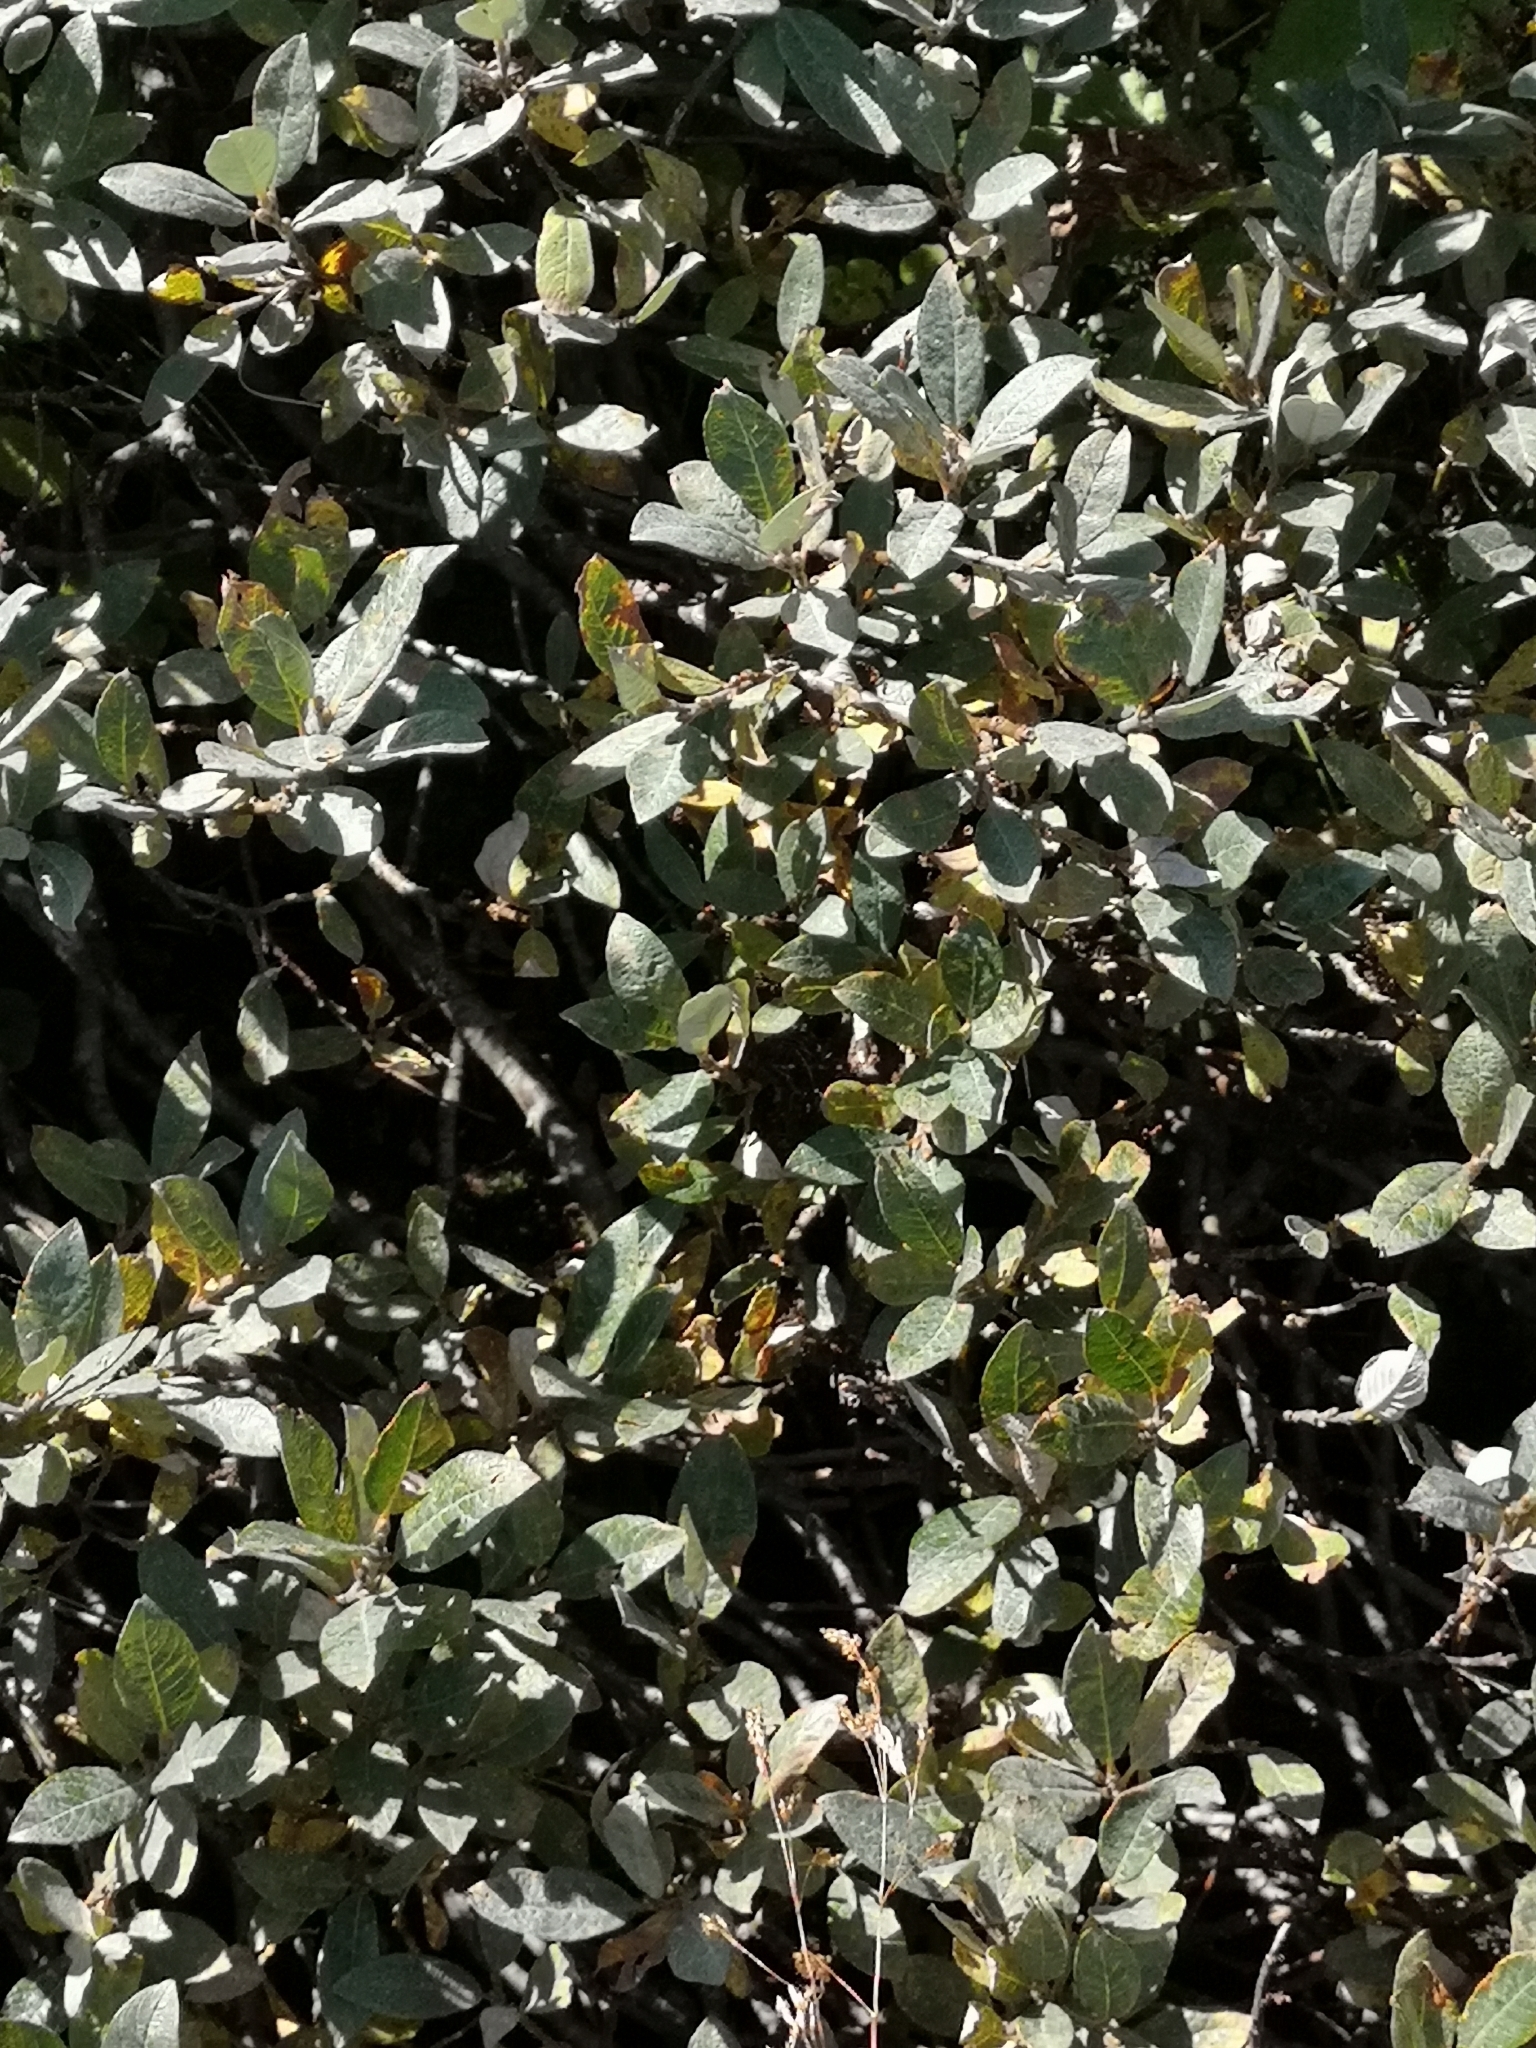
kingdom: Plantae
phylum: Tracheophyta
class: Magnoliopsida
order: Malpighiales
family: Salicaceae
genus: Salix
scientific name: Salix helvetica
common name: Swiss willow
